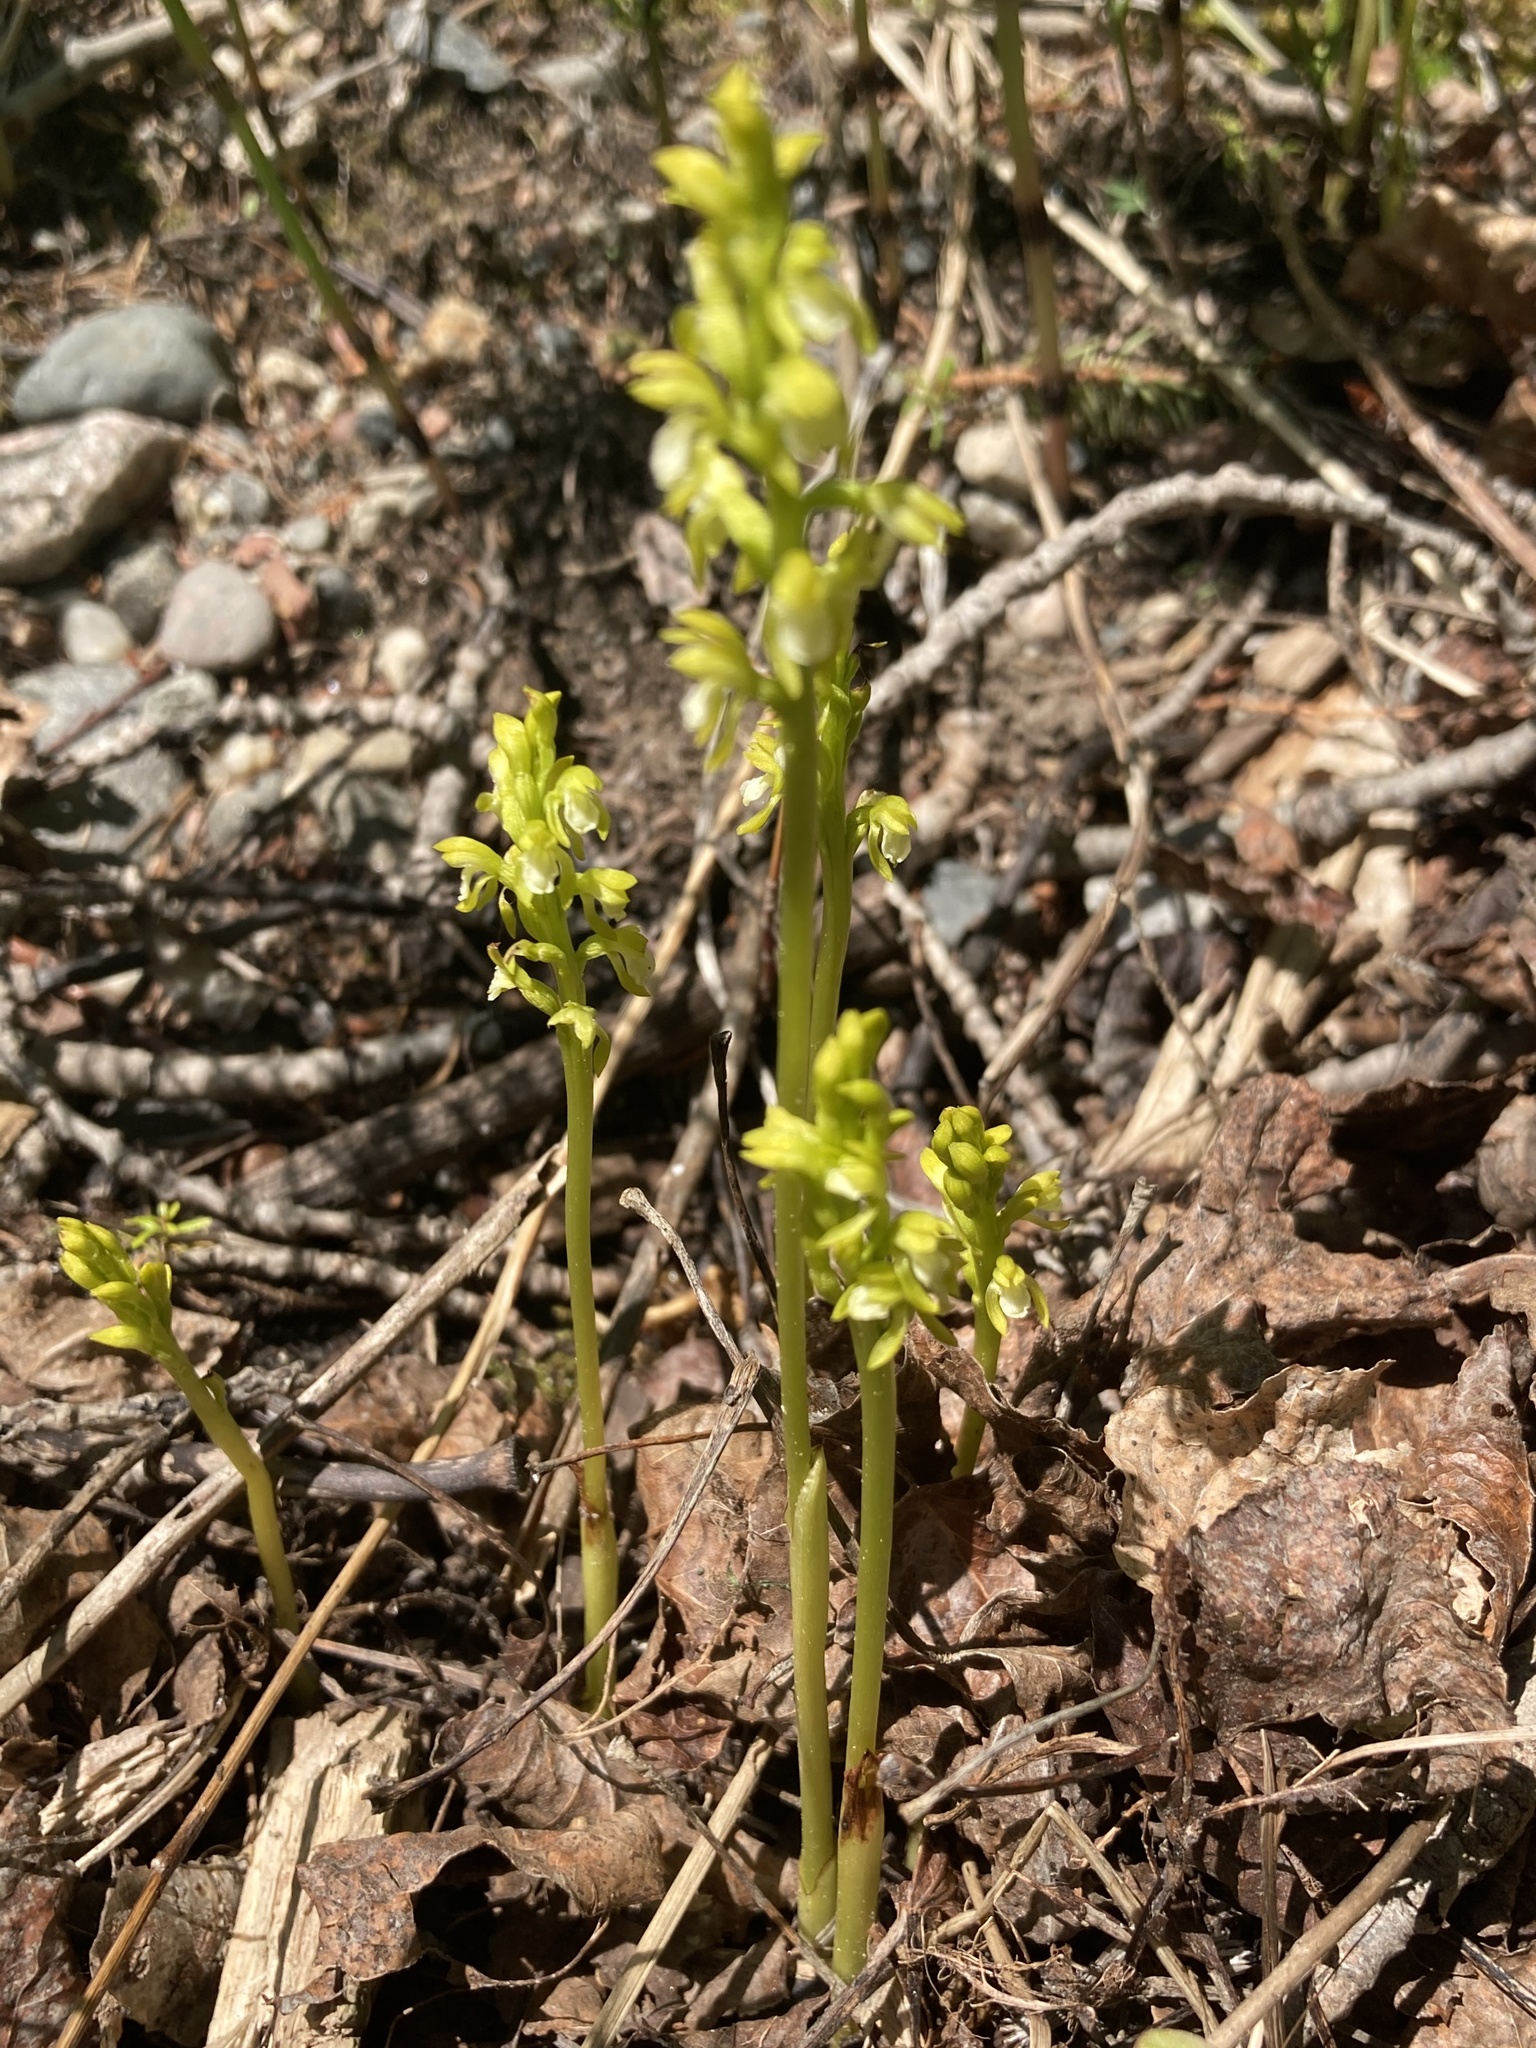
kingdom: Plantae
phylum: Tracheophyta
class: Liliopsida
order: Asparagales
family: Orchidaceae
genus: Corallorhiza
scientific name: Corallorhiza trifida
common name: Yellow coralroot
